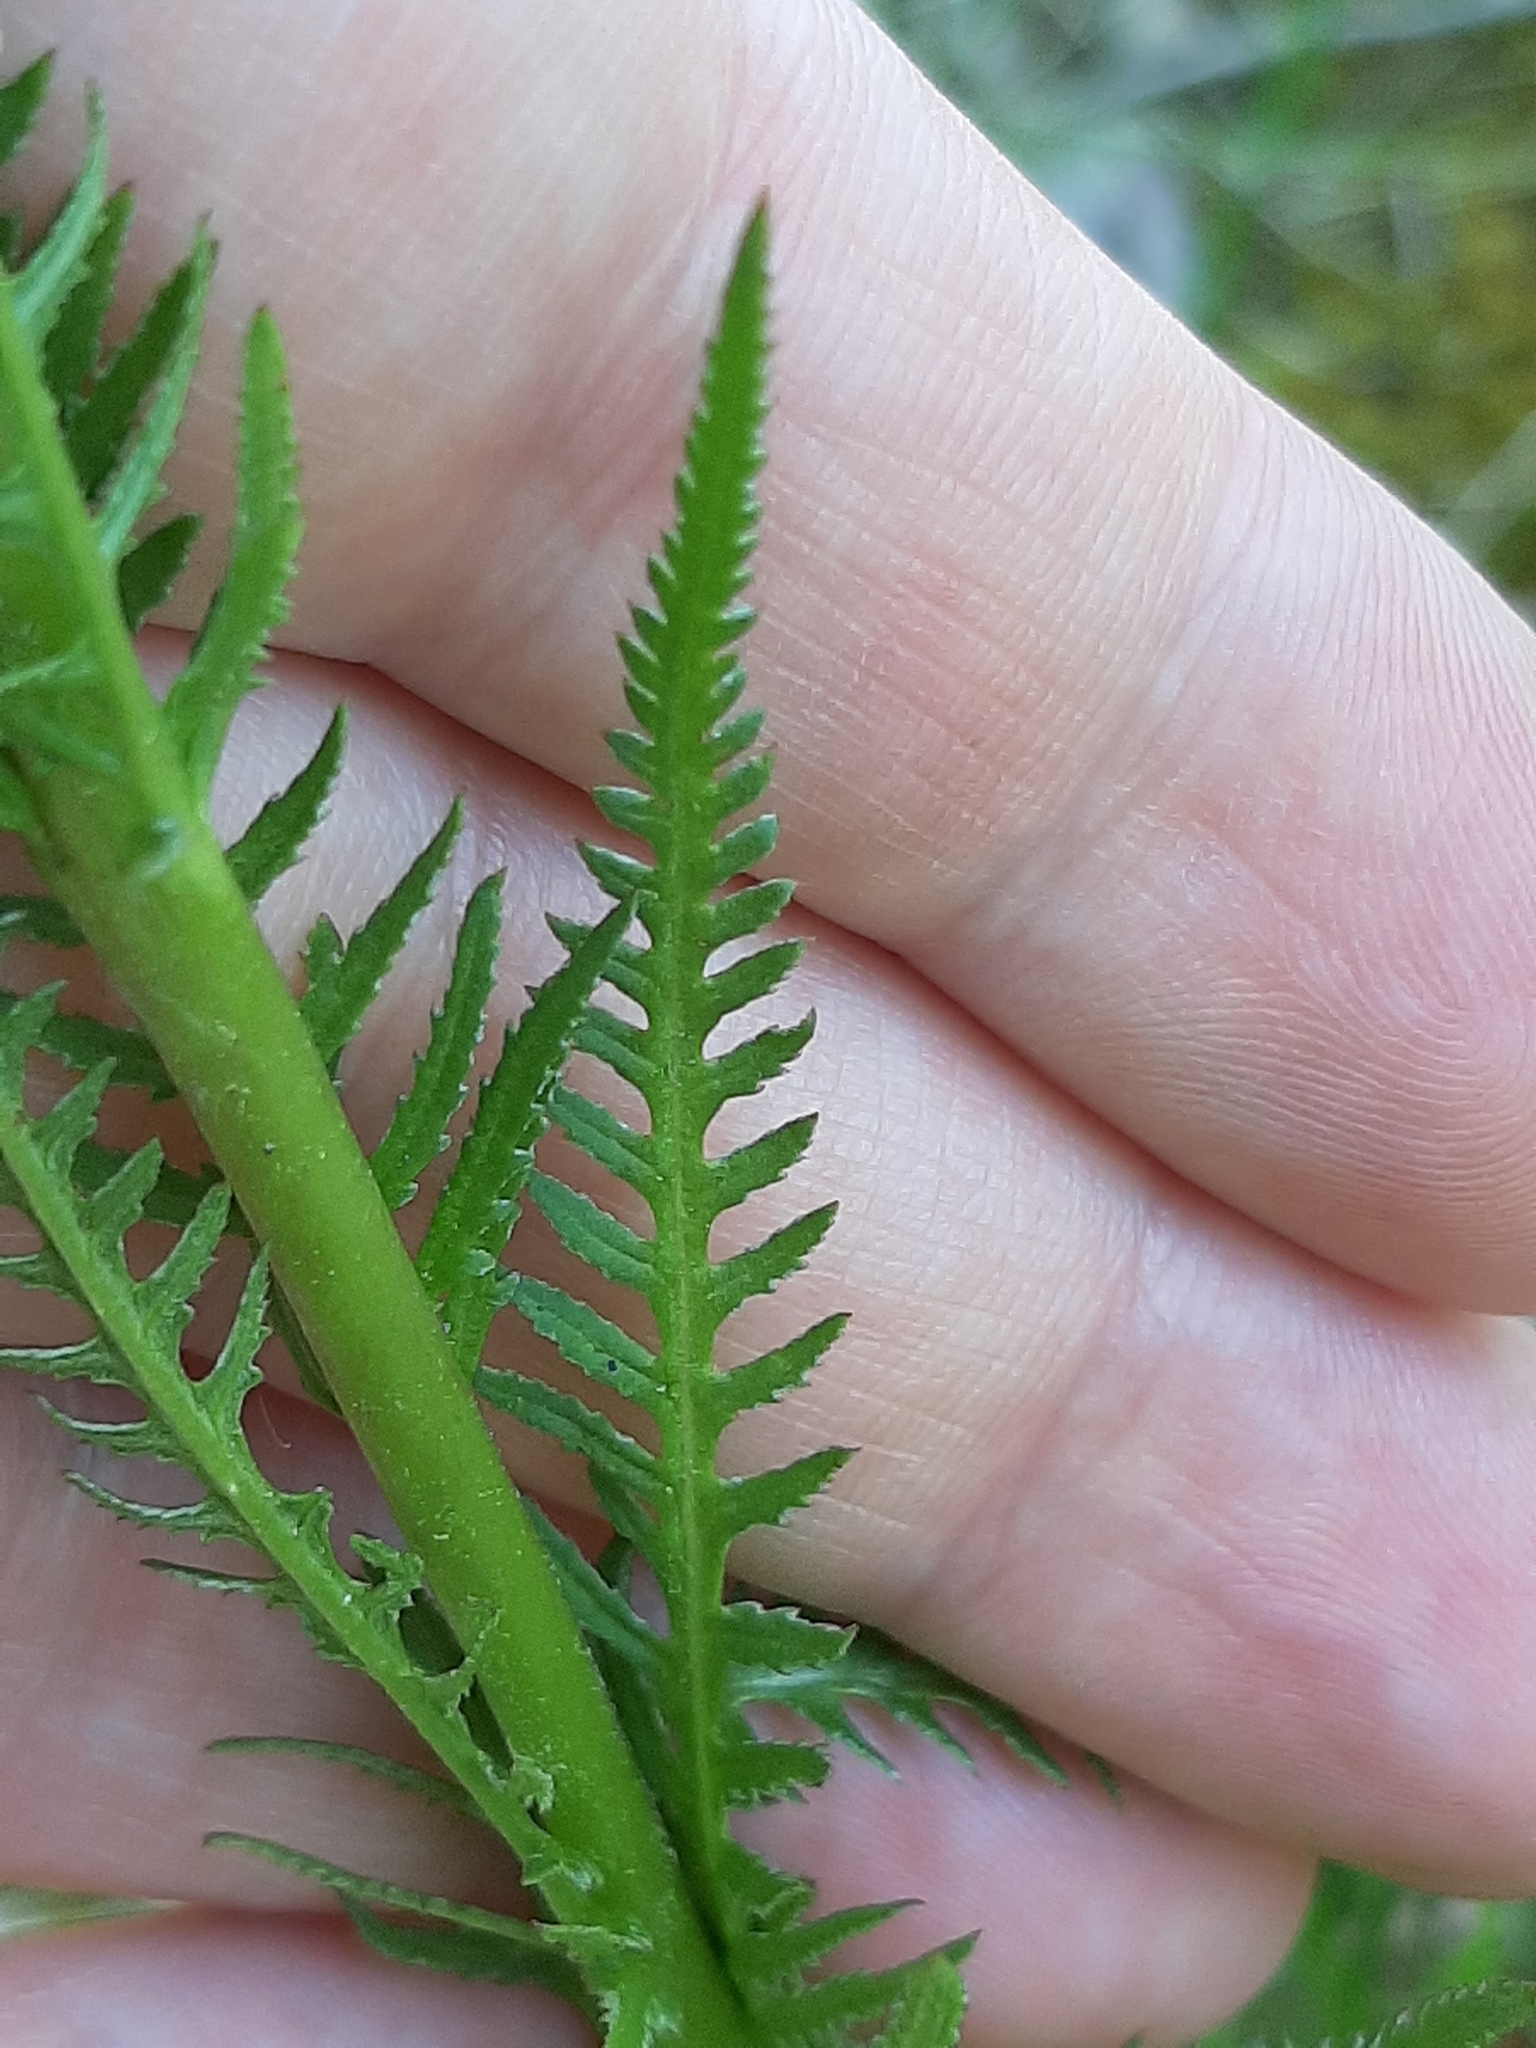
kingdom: Plantae
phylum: Tracheophyta
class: Magnoliopsida
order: Lamiales
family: Orobanchaceae
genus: Pedicularis
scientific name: Pedicularis groenlandica
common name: Elephant's-head
